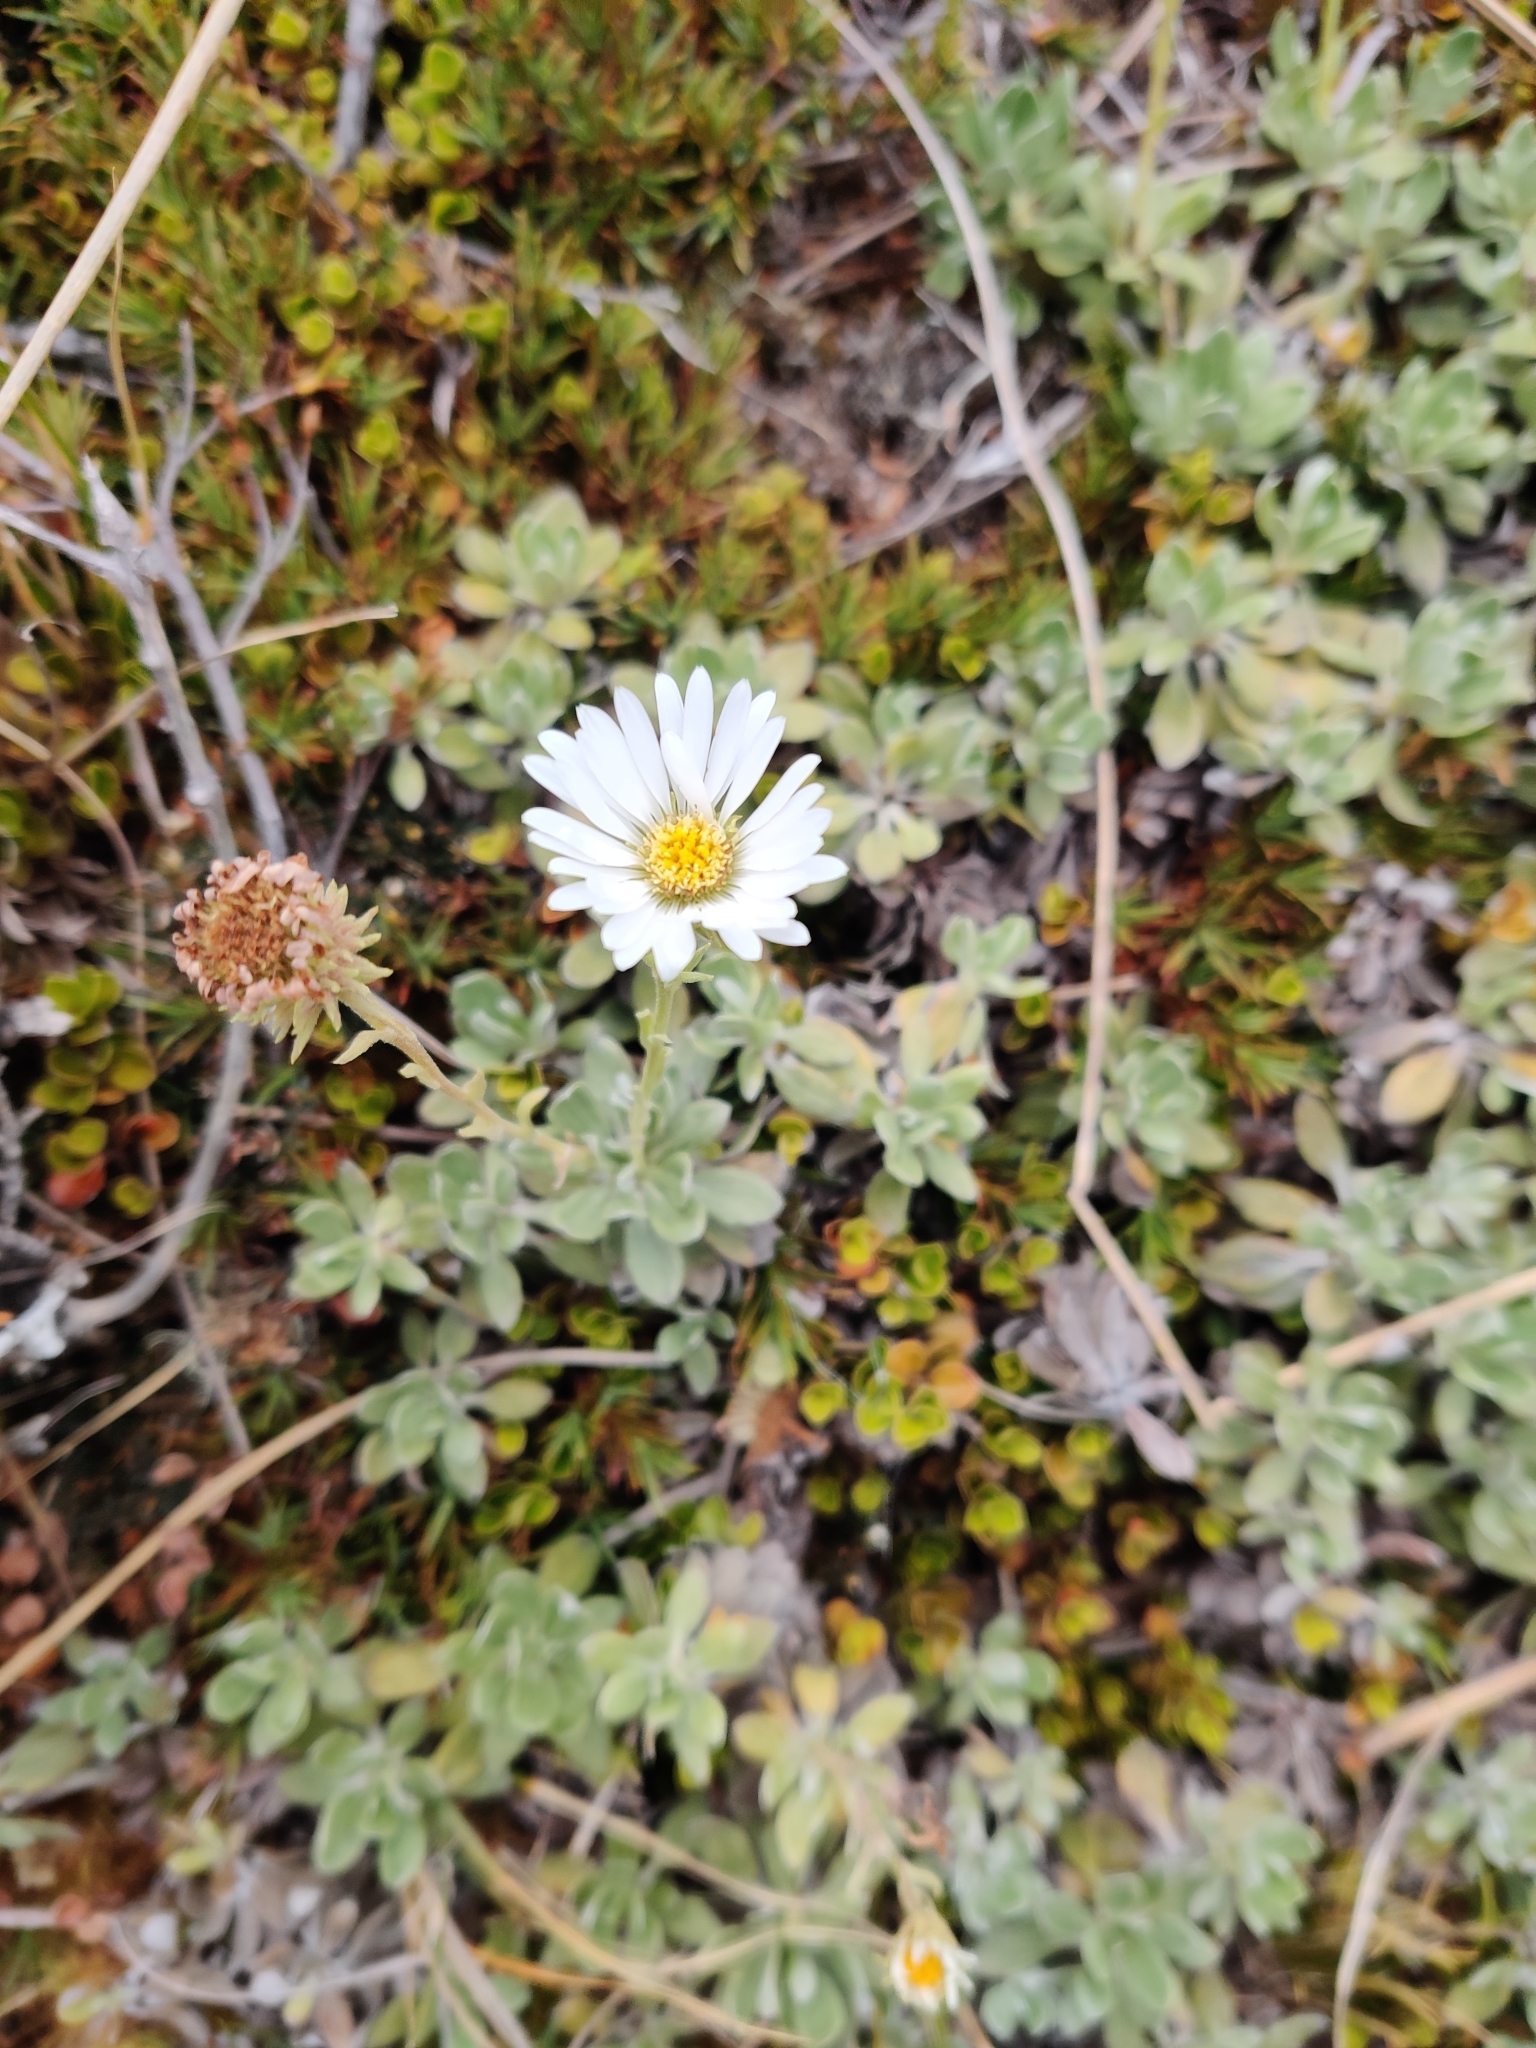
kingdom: Plantae
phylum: Tracheophyta
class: Magnoliopsida
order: Asterales
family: Asteraceae
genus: Celmisia
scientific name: Celmisia discolor
